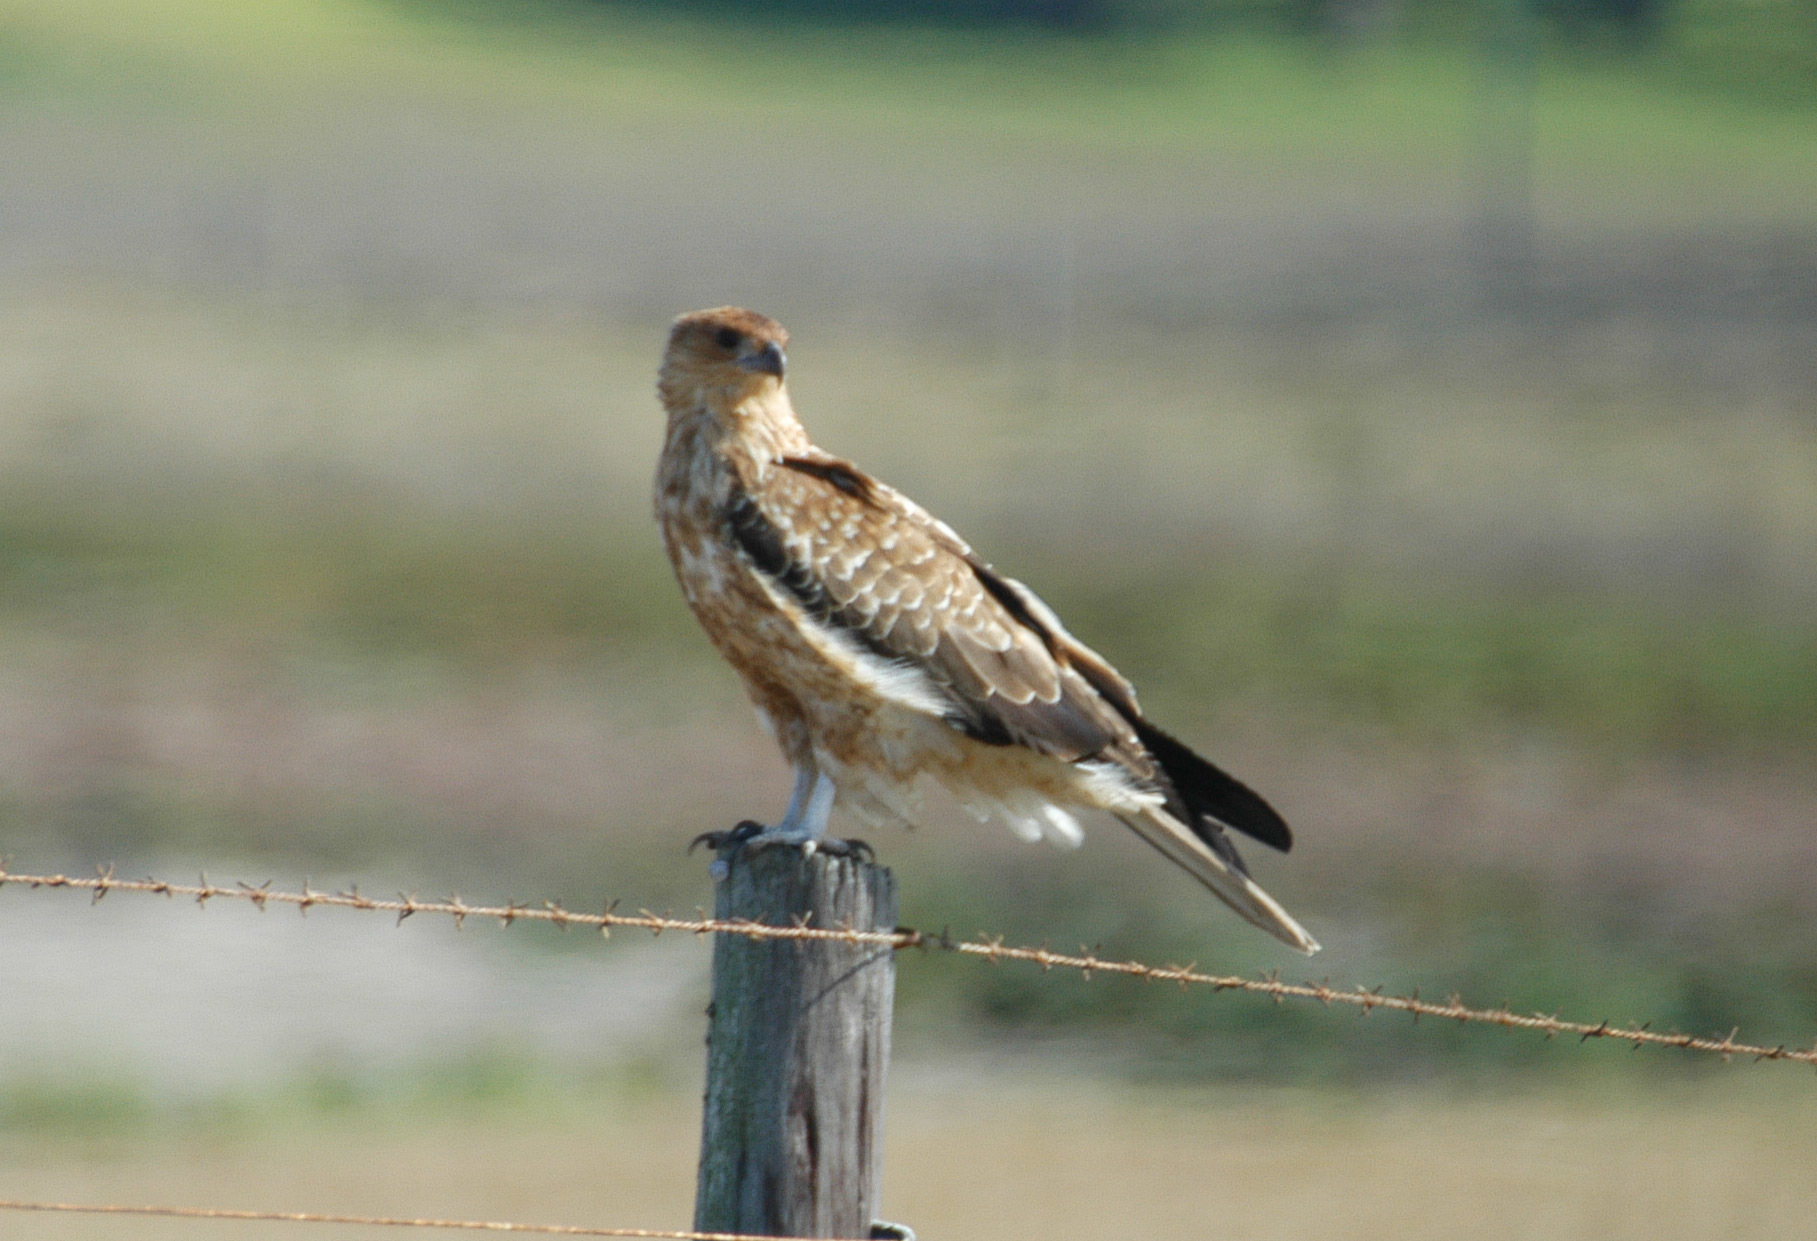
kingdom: Animalia
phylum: Chordata
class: Aves
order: Accipitriformes
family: Accipitridae
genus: Haliastur
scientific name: Haliastur sphenurus
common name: Whistling kite
